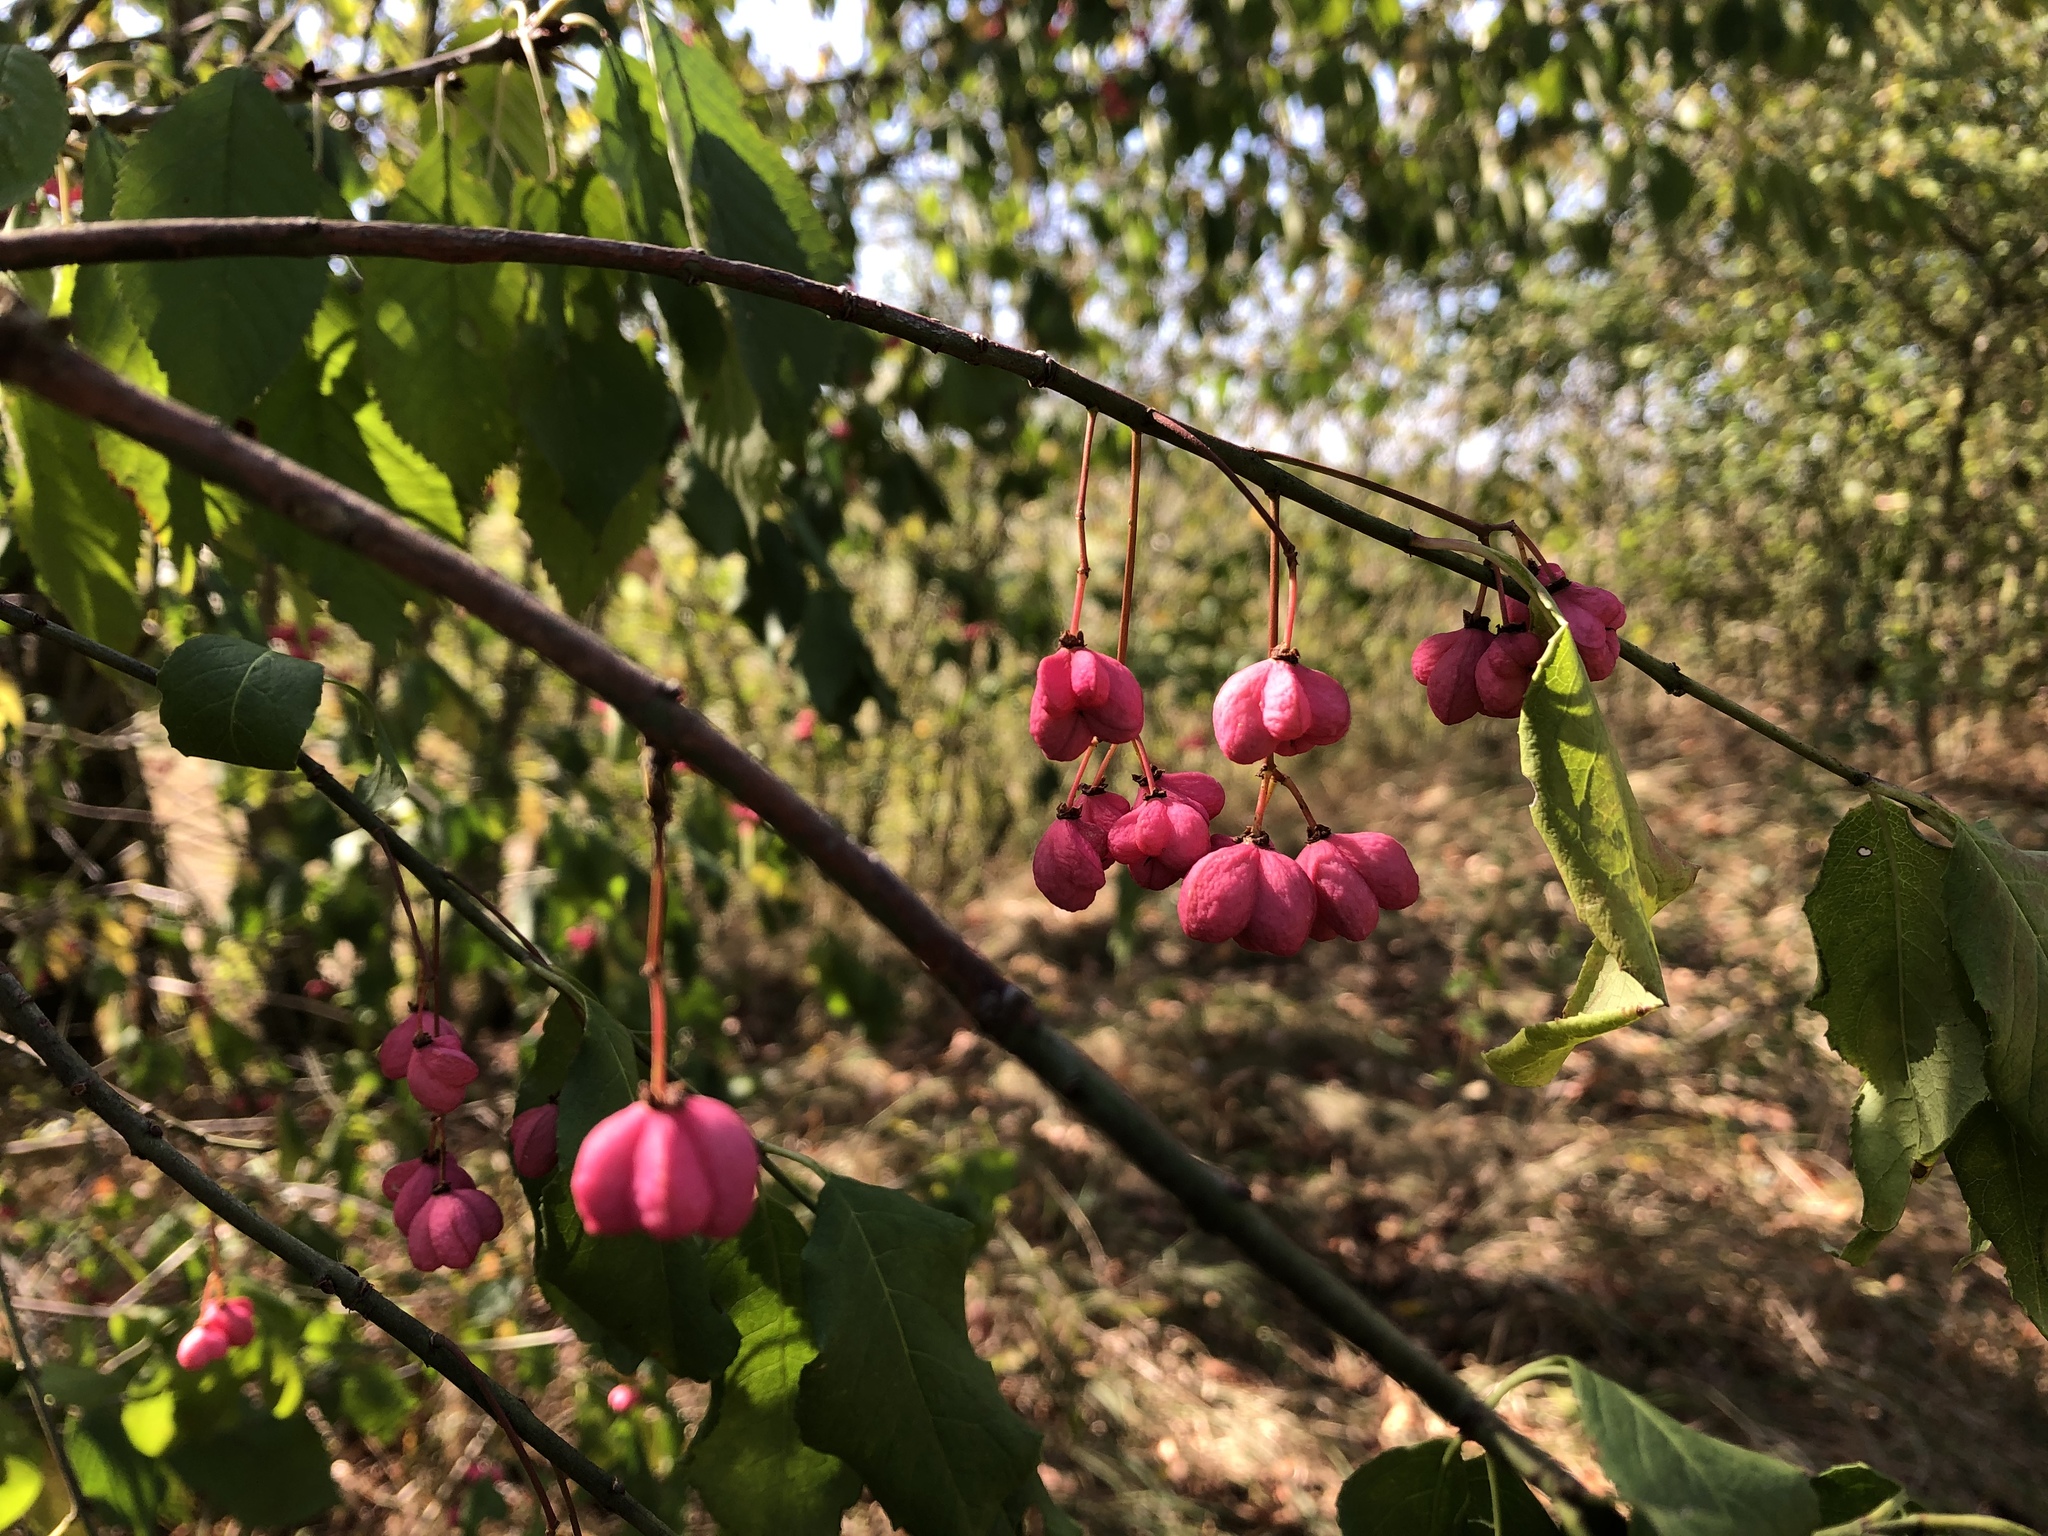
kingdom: Plantae
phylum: Tracheophyta
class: Magnoliopsida
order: Celastrales
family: Celastraceae
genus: Euonymus
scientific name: Euonymus europaeus
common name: Spindle
